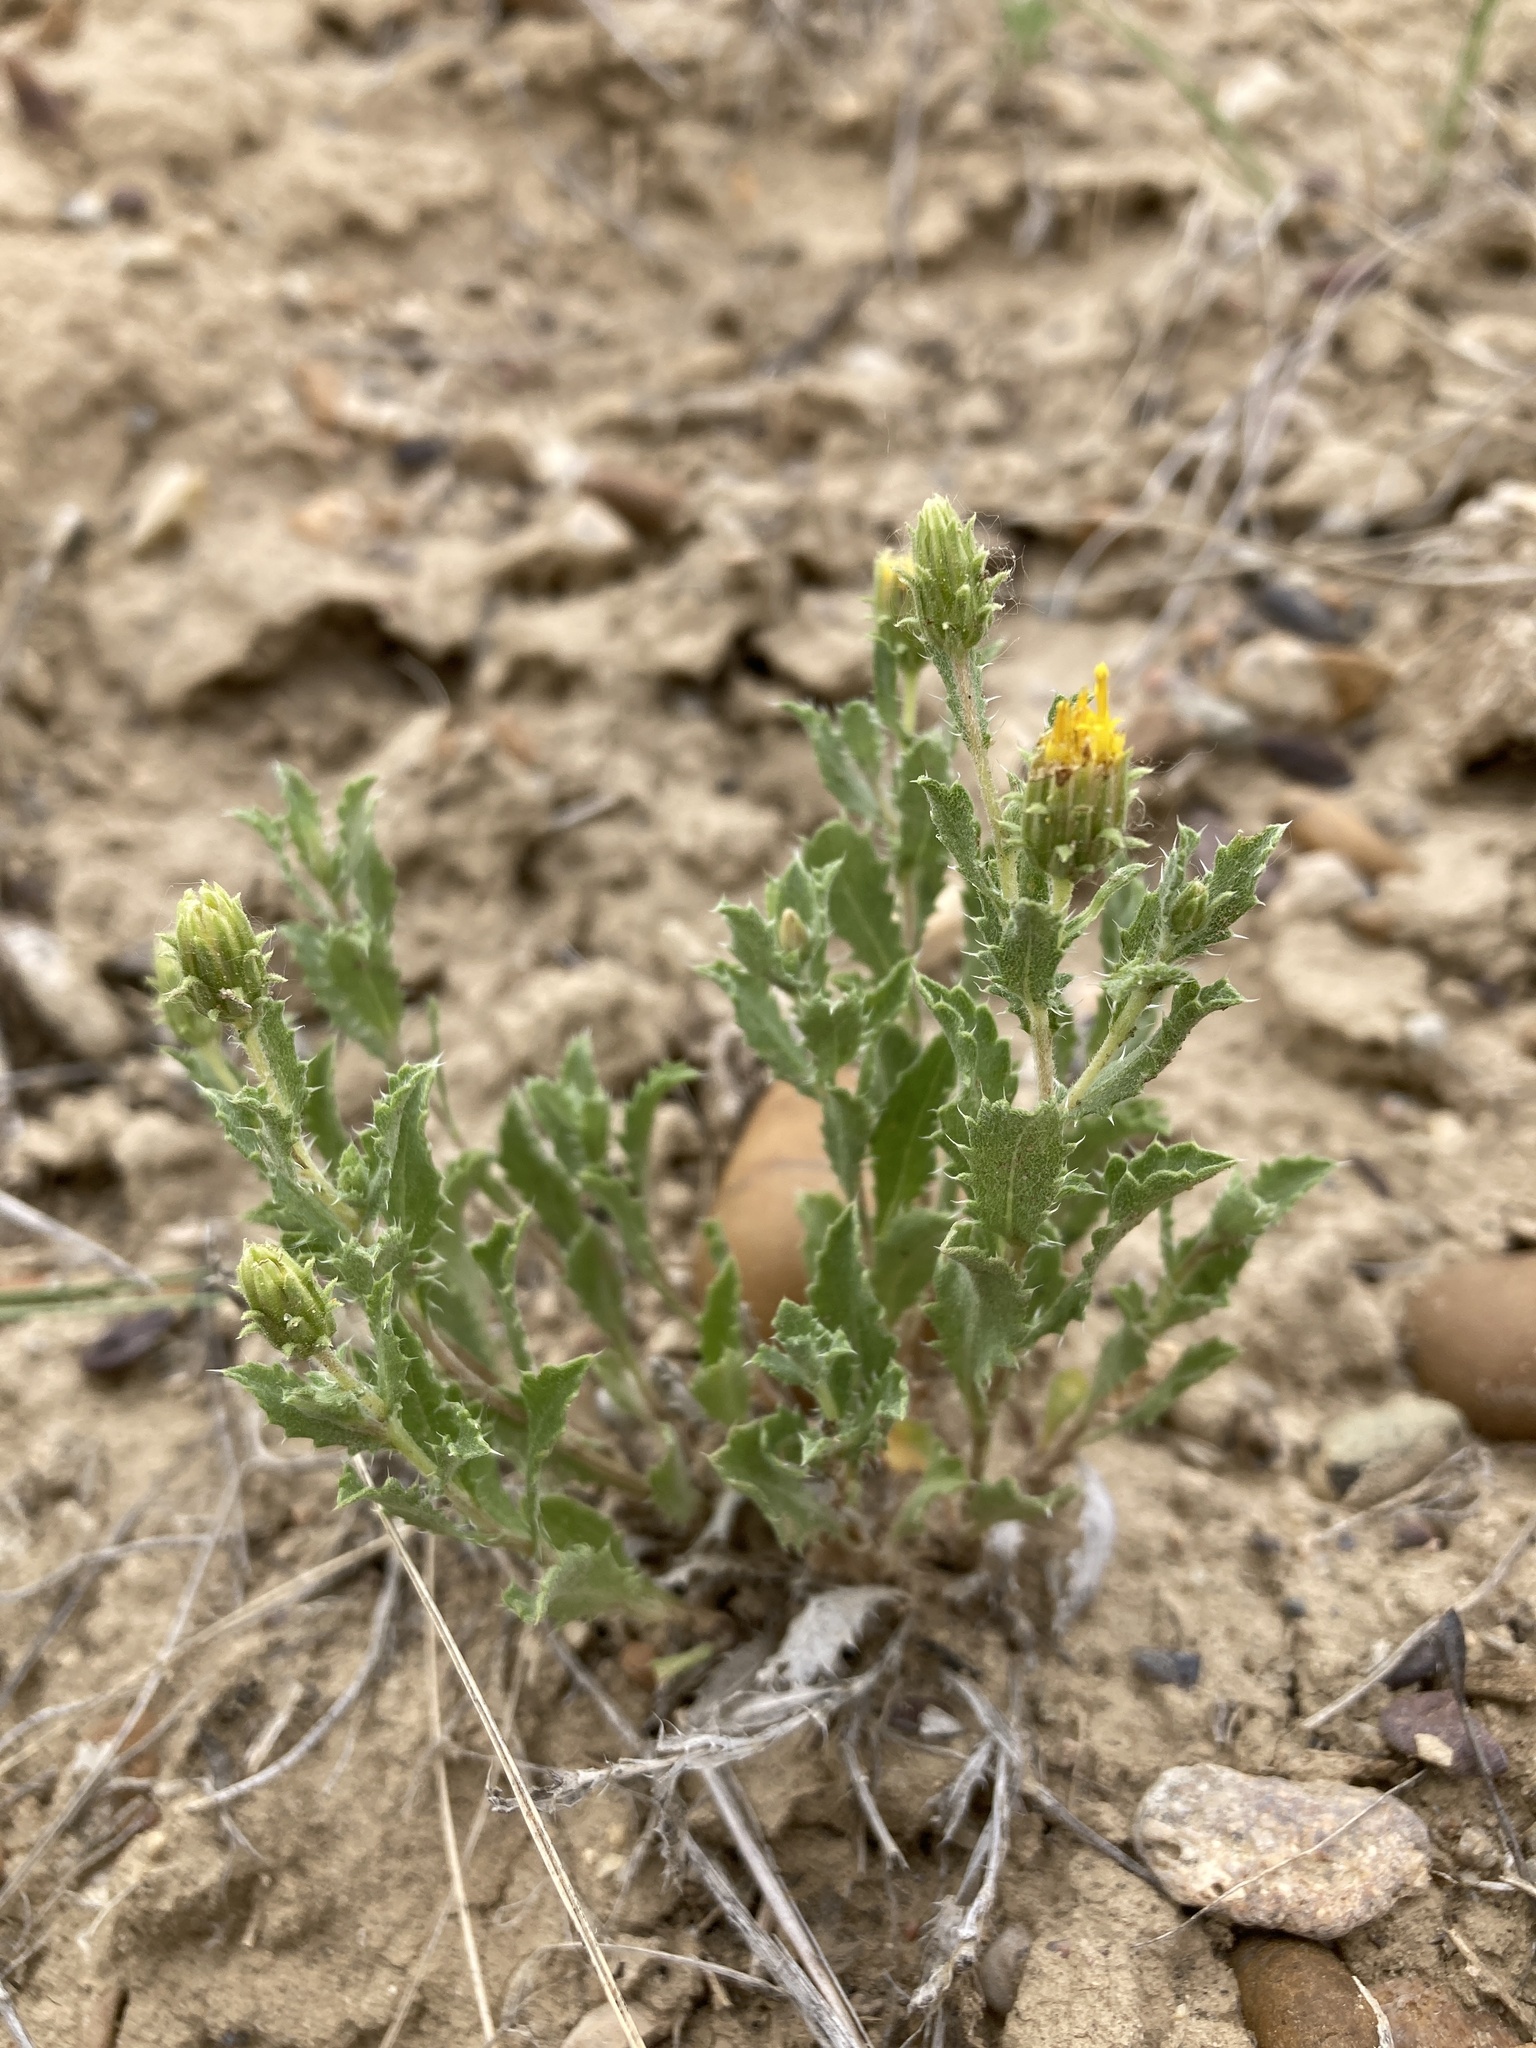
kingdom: Plantae
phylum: Tracheophyta
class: Magnoliopsida
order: Asterales
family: Asteraceae
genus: Xanthisma
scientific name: Xanthisma grindelioides
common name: Goldenweed
